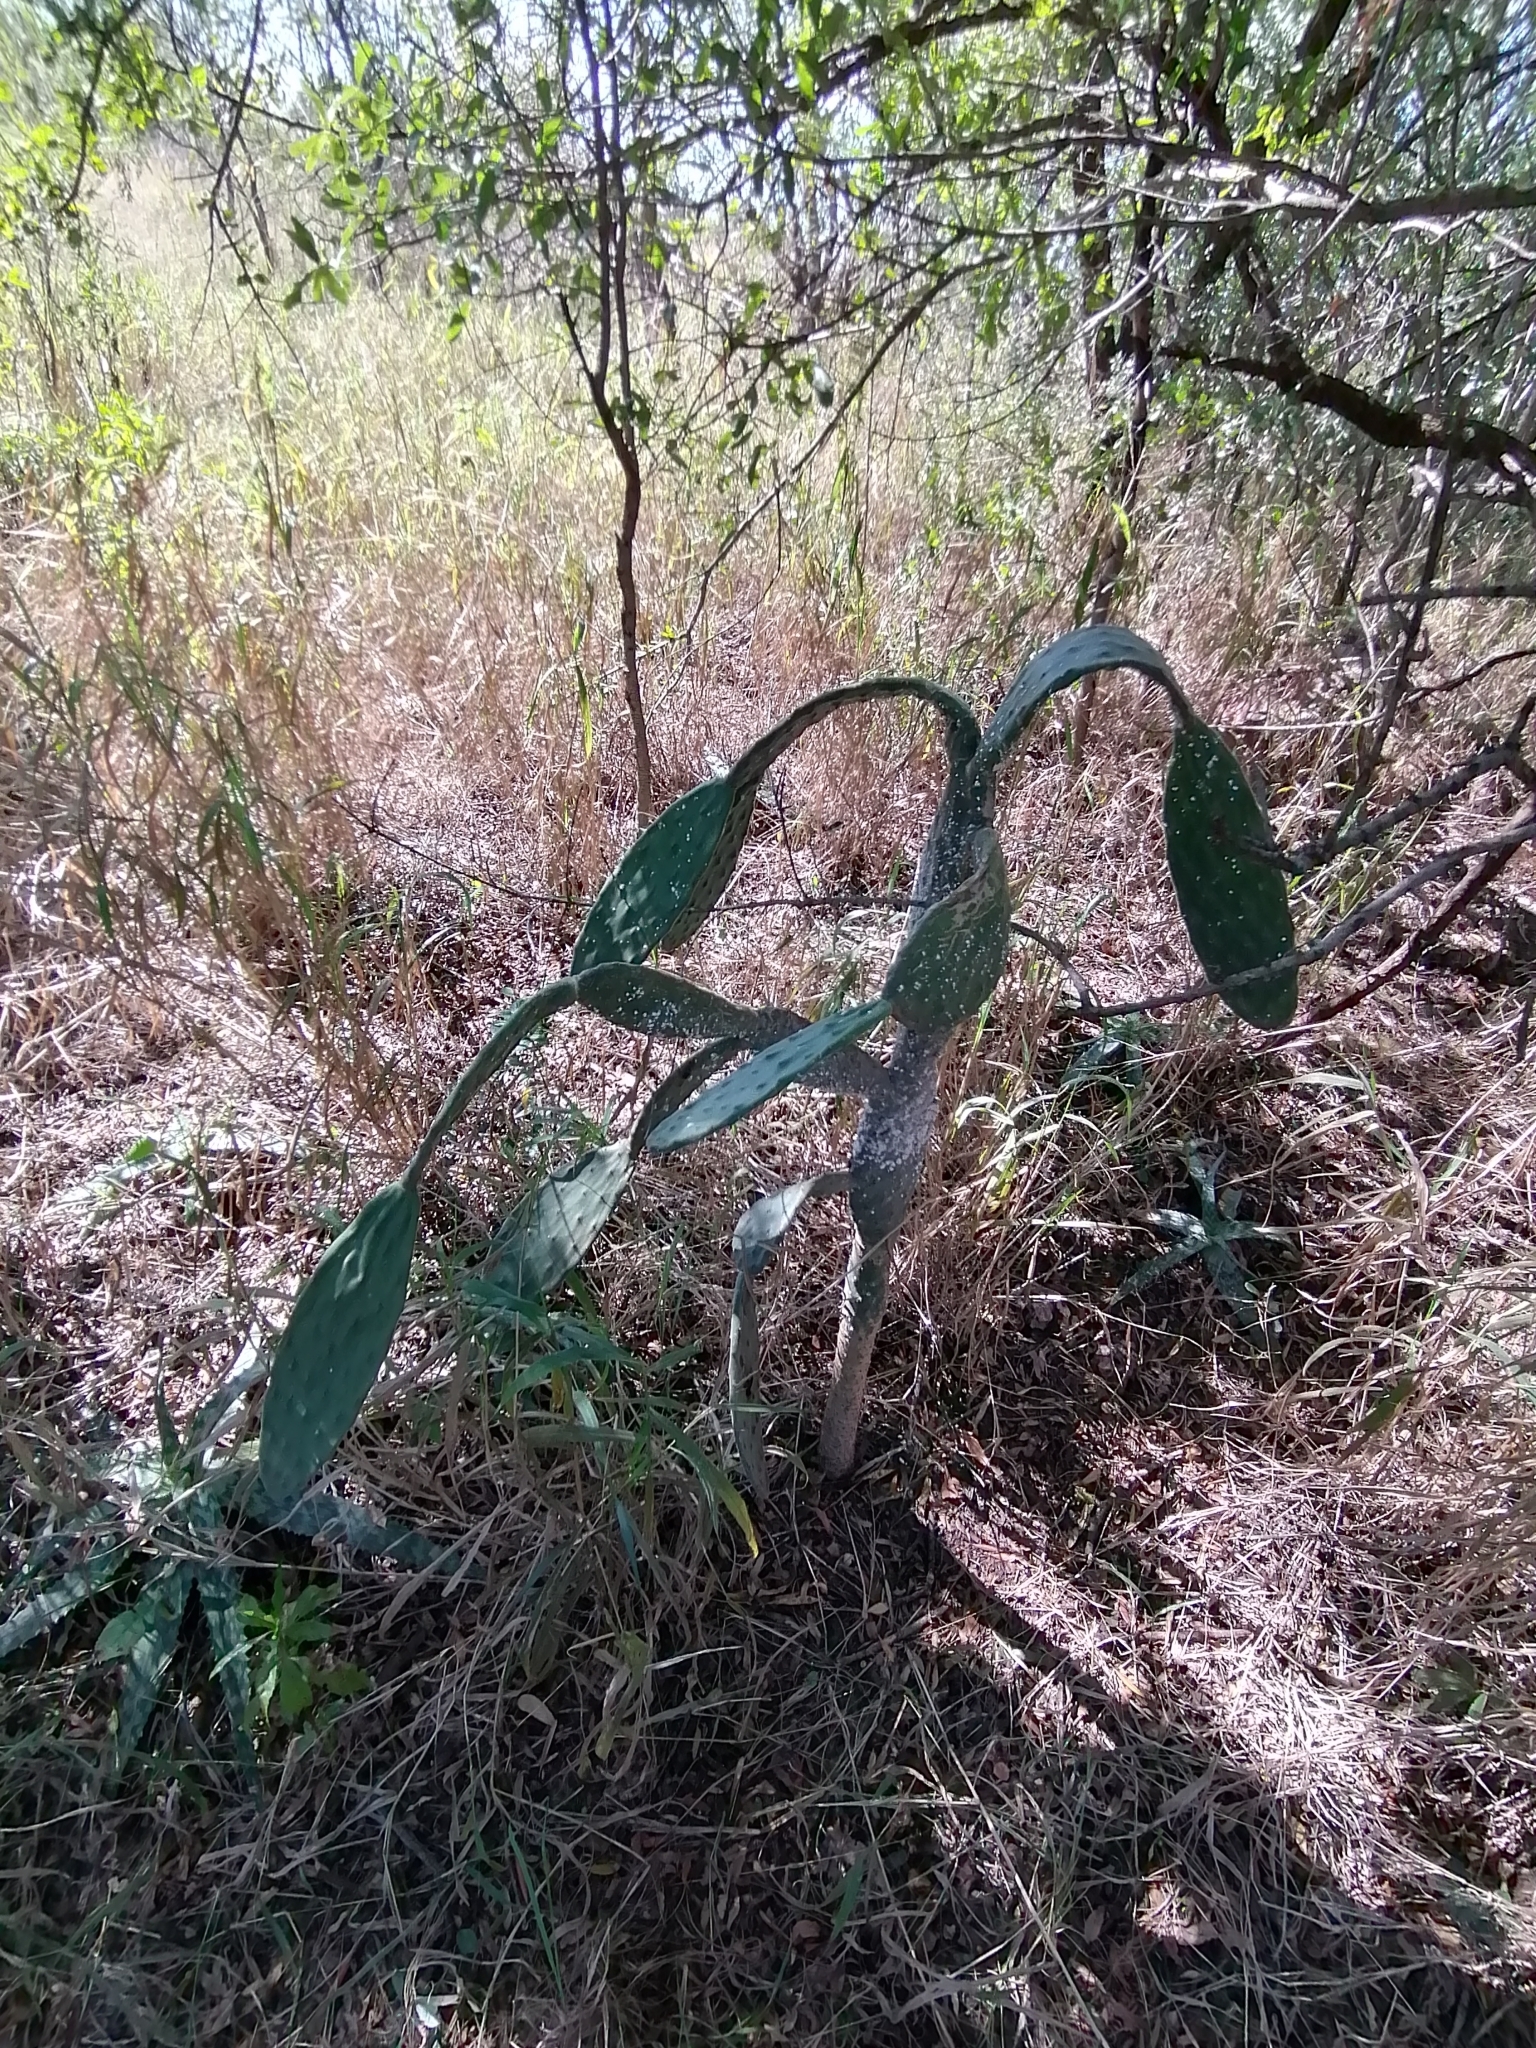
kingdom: Plantae
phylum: Tracheophyta
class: Magnoliopsida
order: Caryophyllales
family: Cactaceae
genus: Opuntia
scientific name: Opuntia tomentosa
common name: Woollyjoint pricklypear
